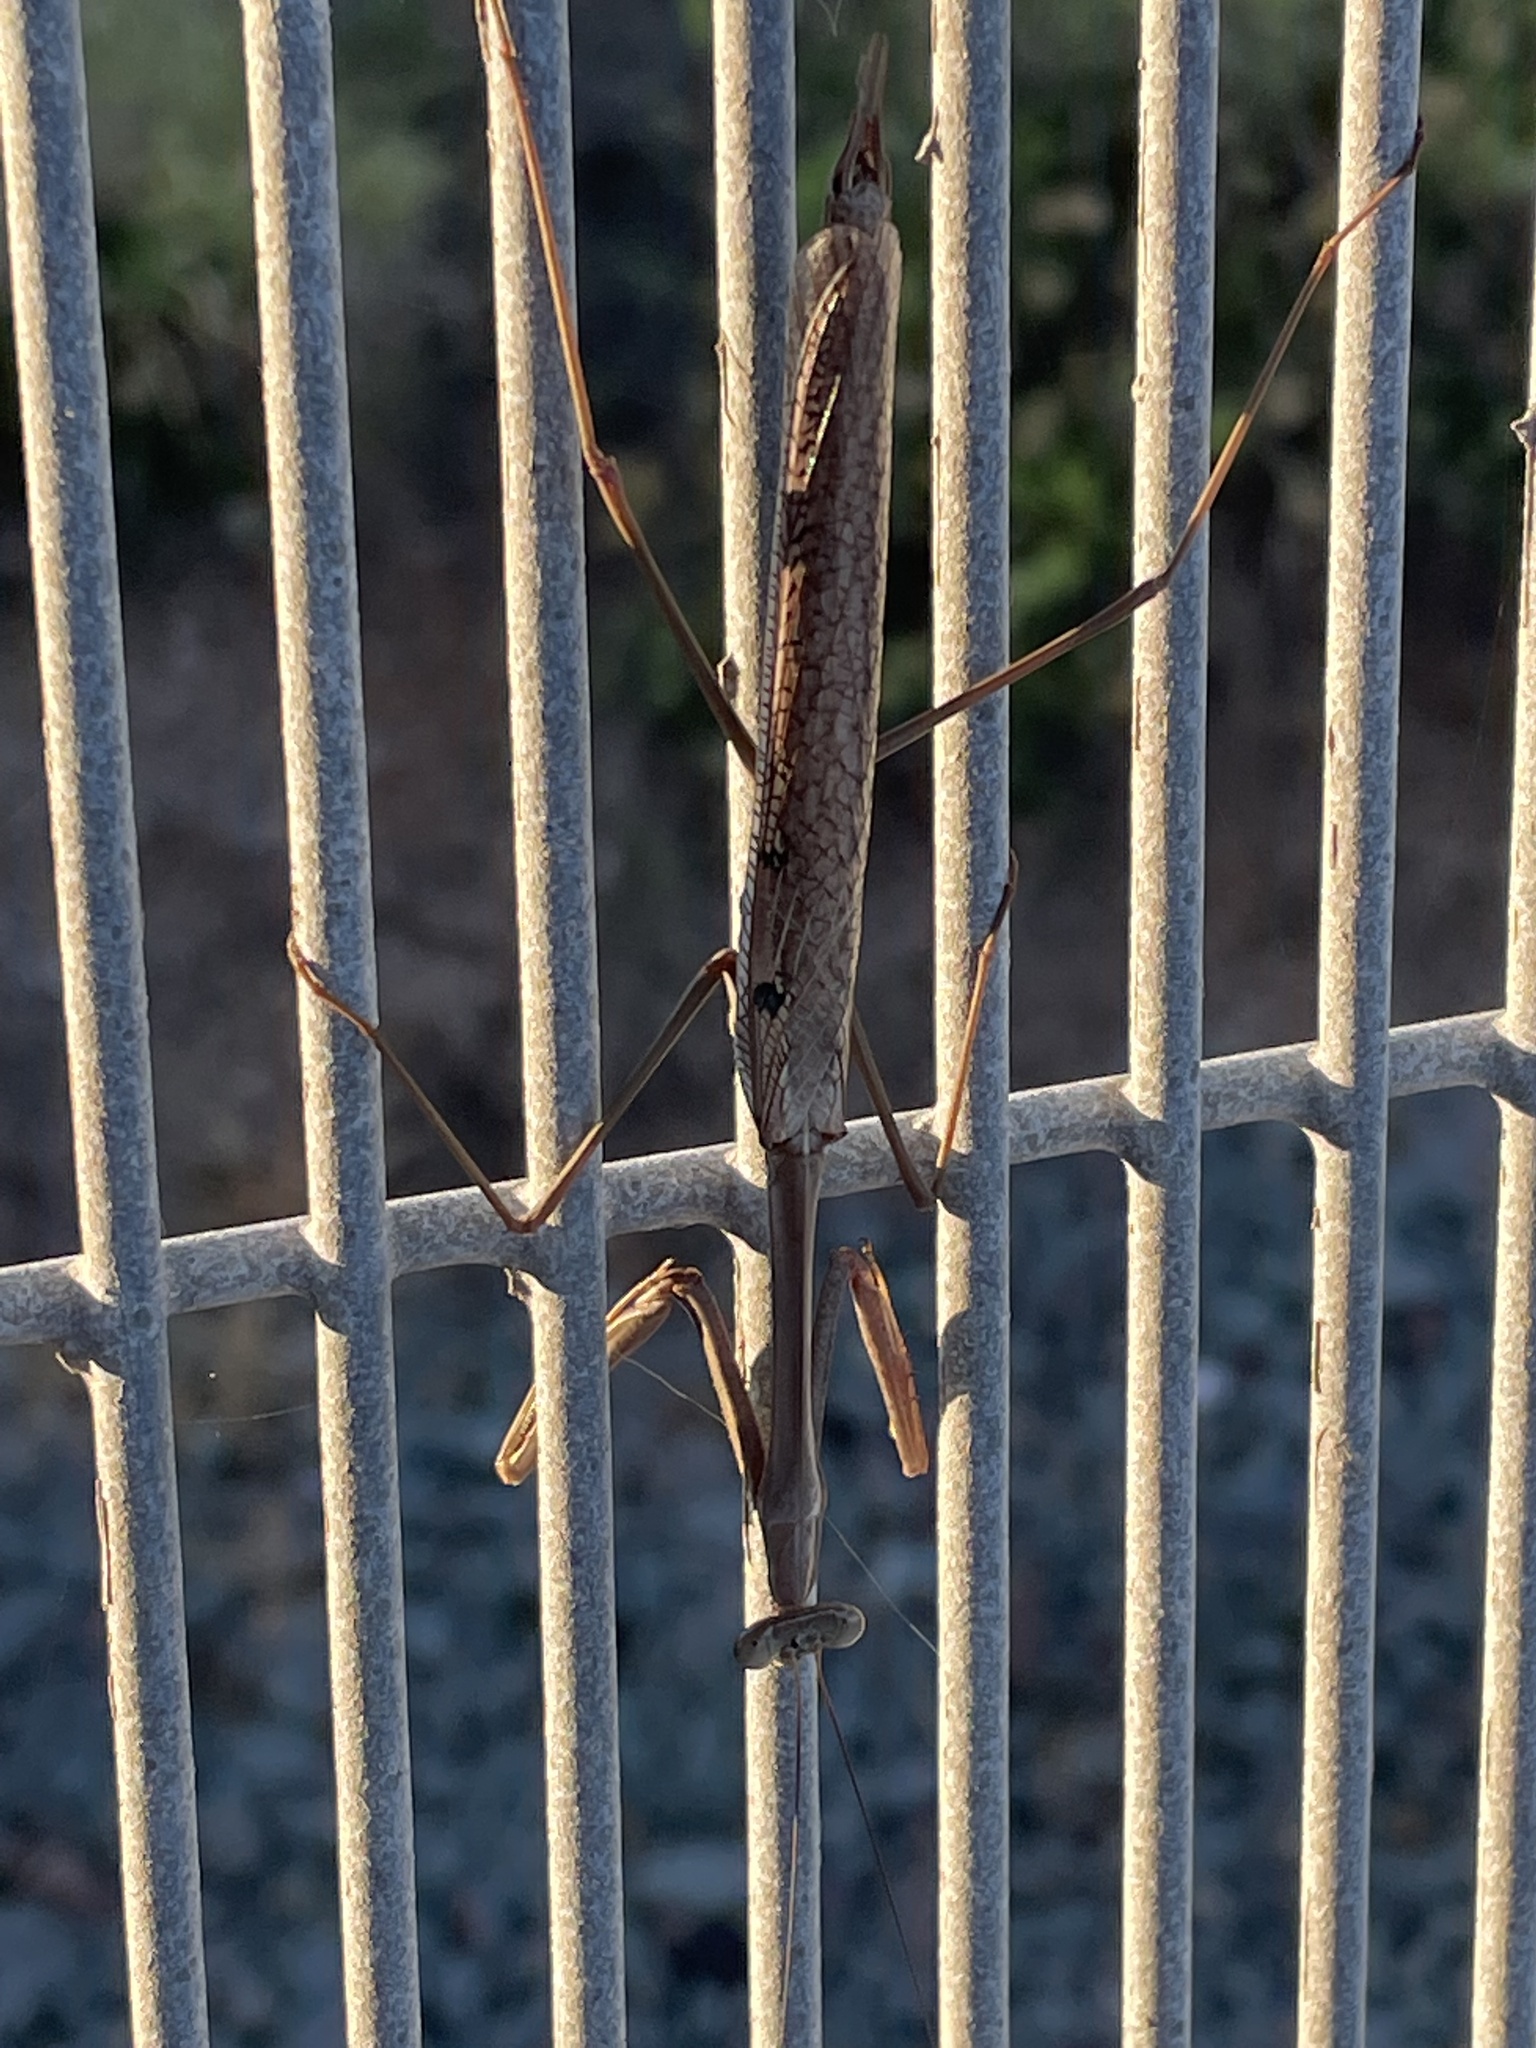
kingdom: Animalia
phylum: Arthropoda
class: Insecta
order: Mantodea
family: Mantidae
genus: Archimantis
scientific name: Archimantis latistyla
